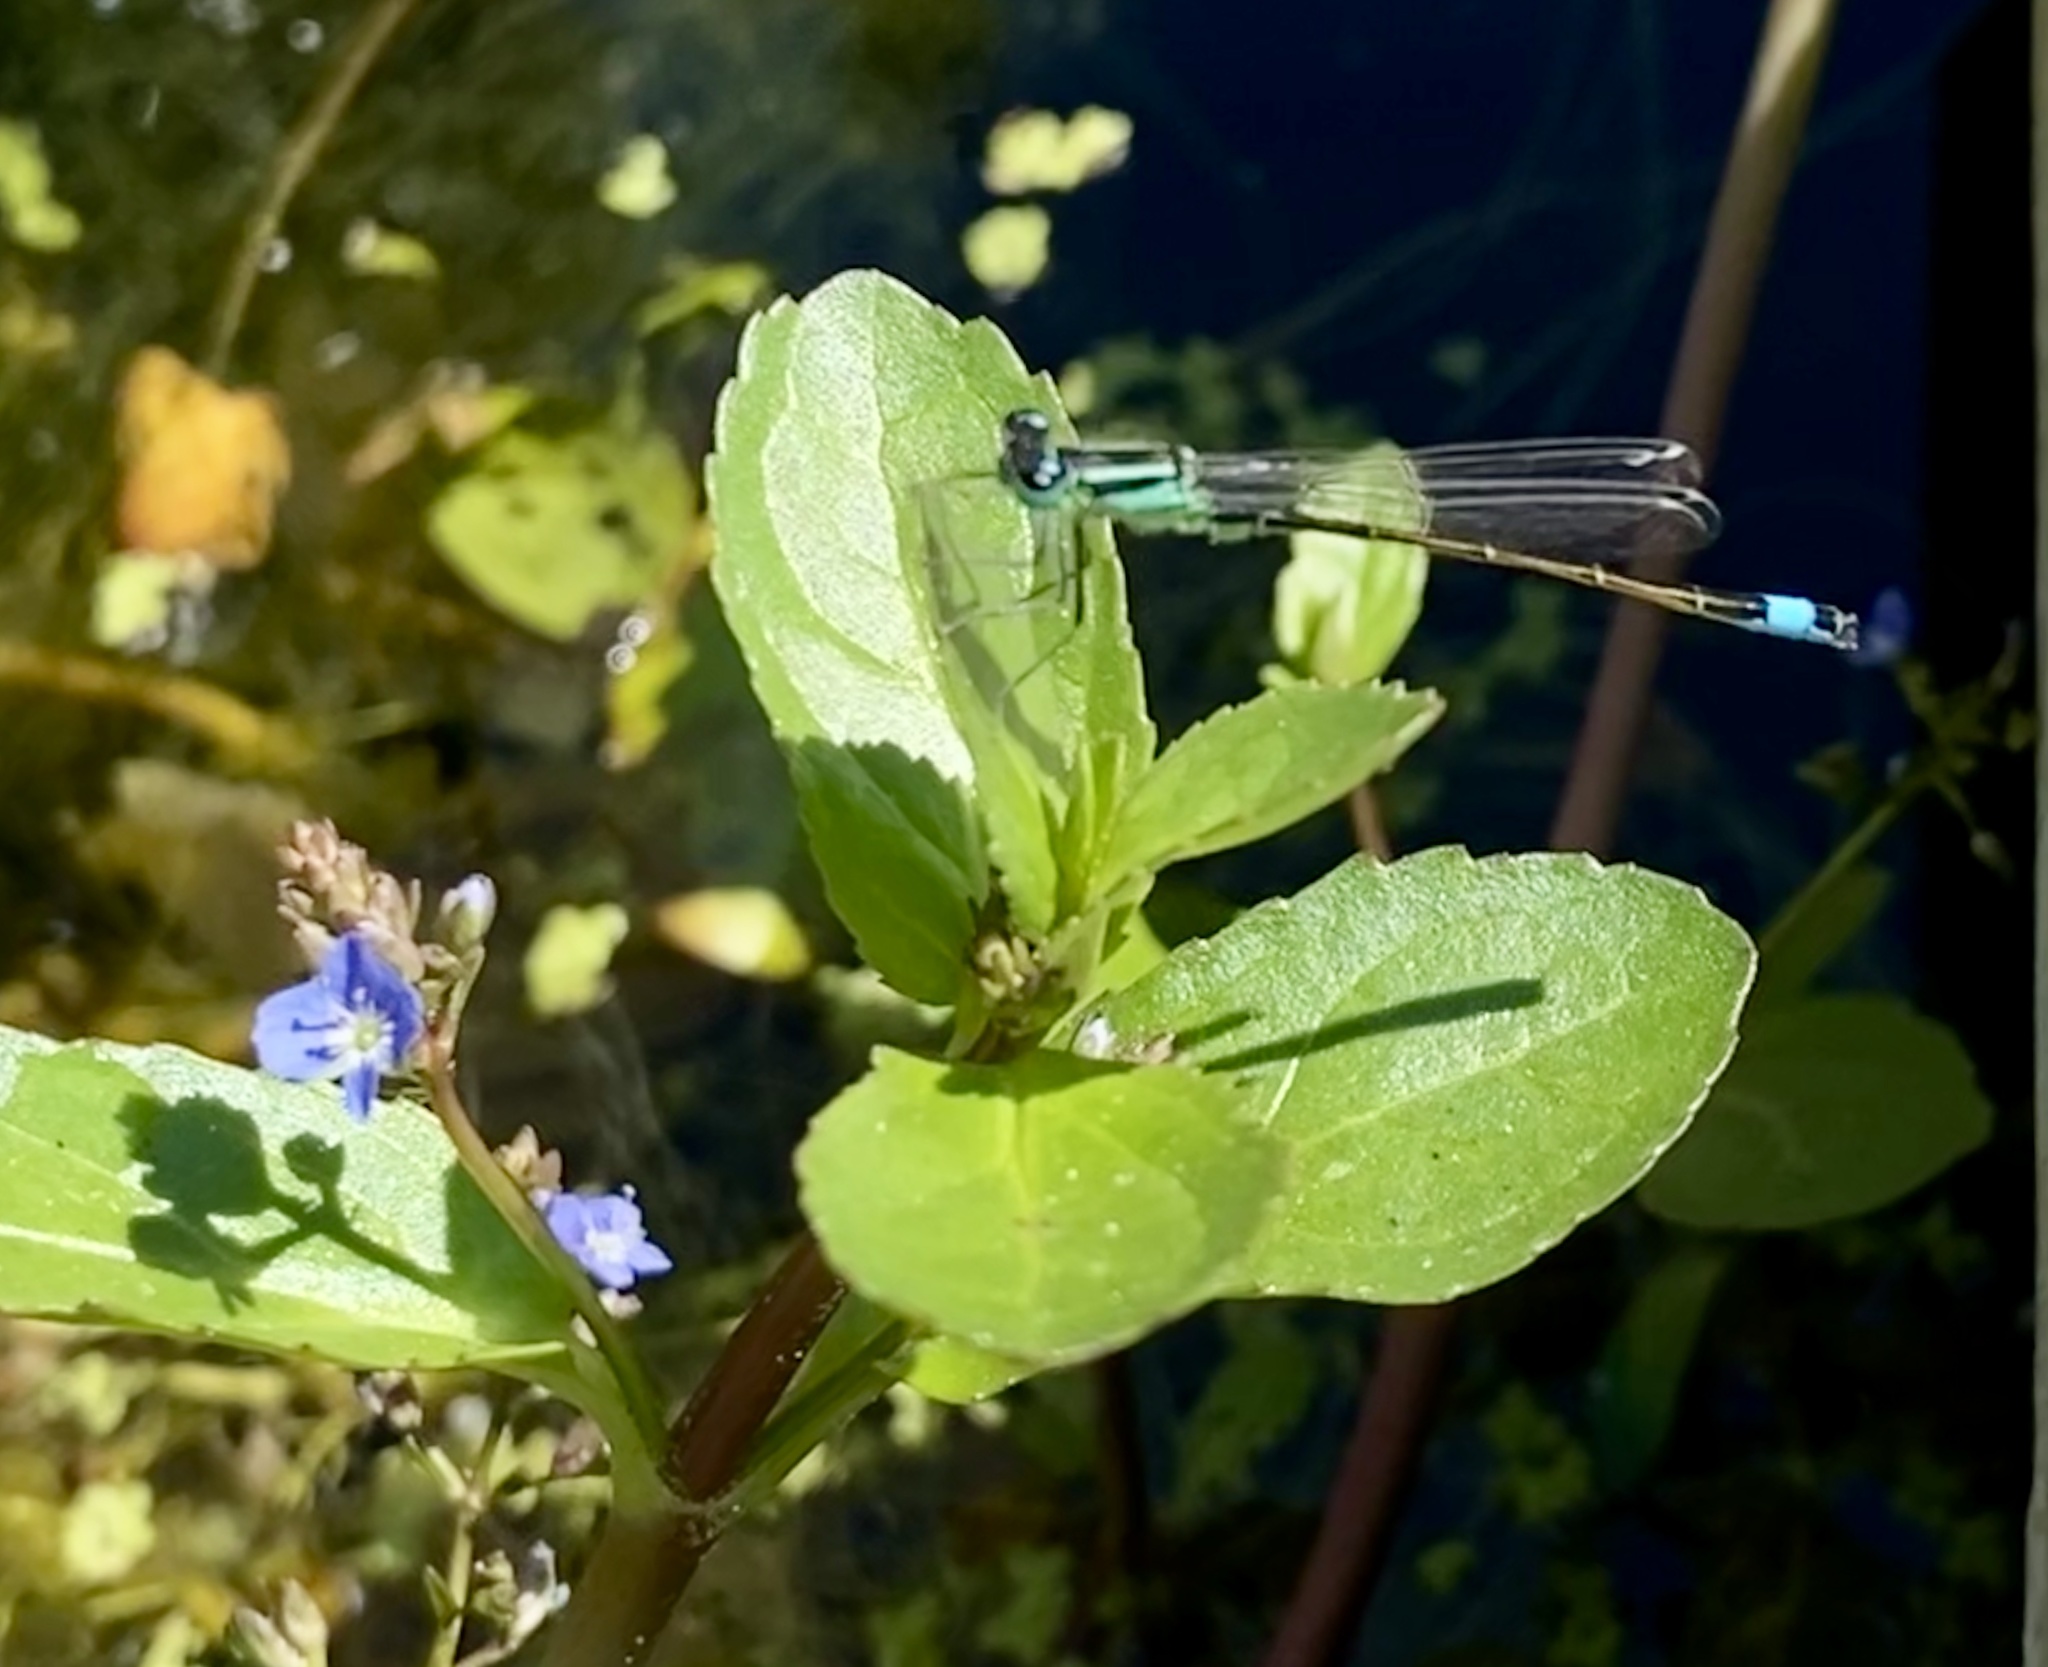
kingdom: Animalia
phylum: Arthropoda
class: Insecta
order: Odonata
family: Coenagrionidae
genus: Ischnura
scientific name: Ischnura elegans
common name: Blue-tailed damselfly
